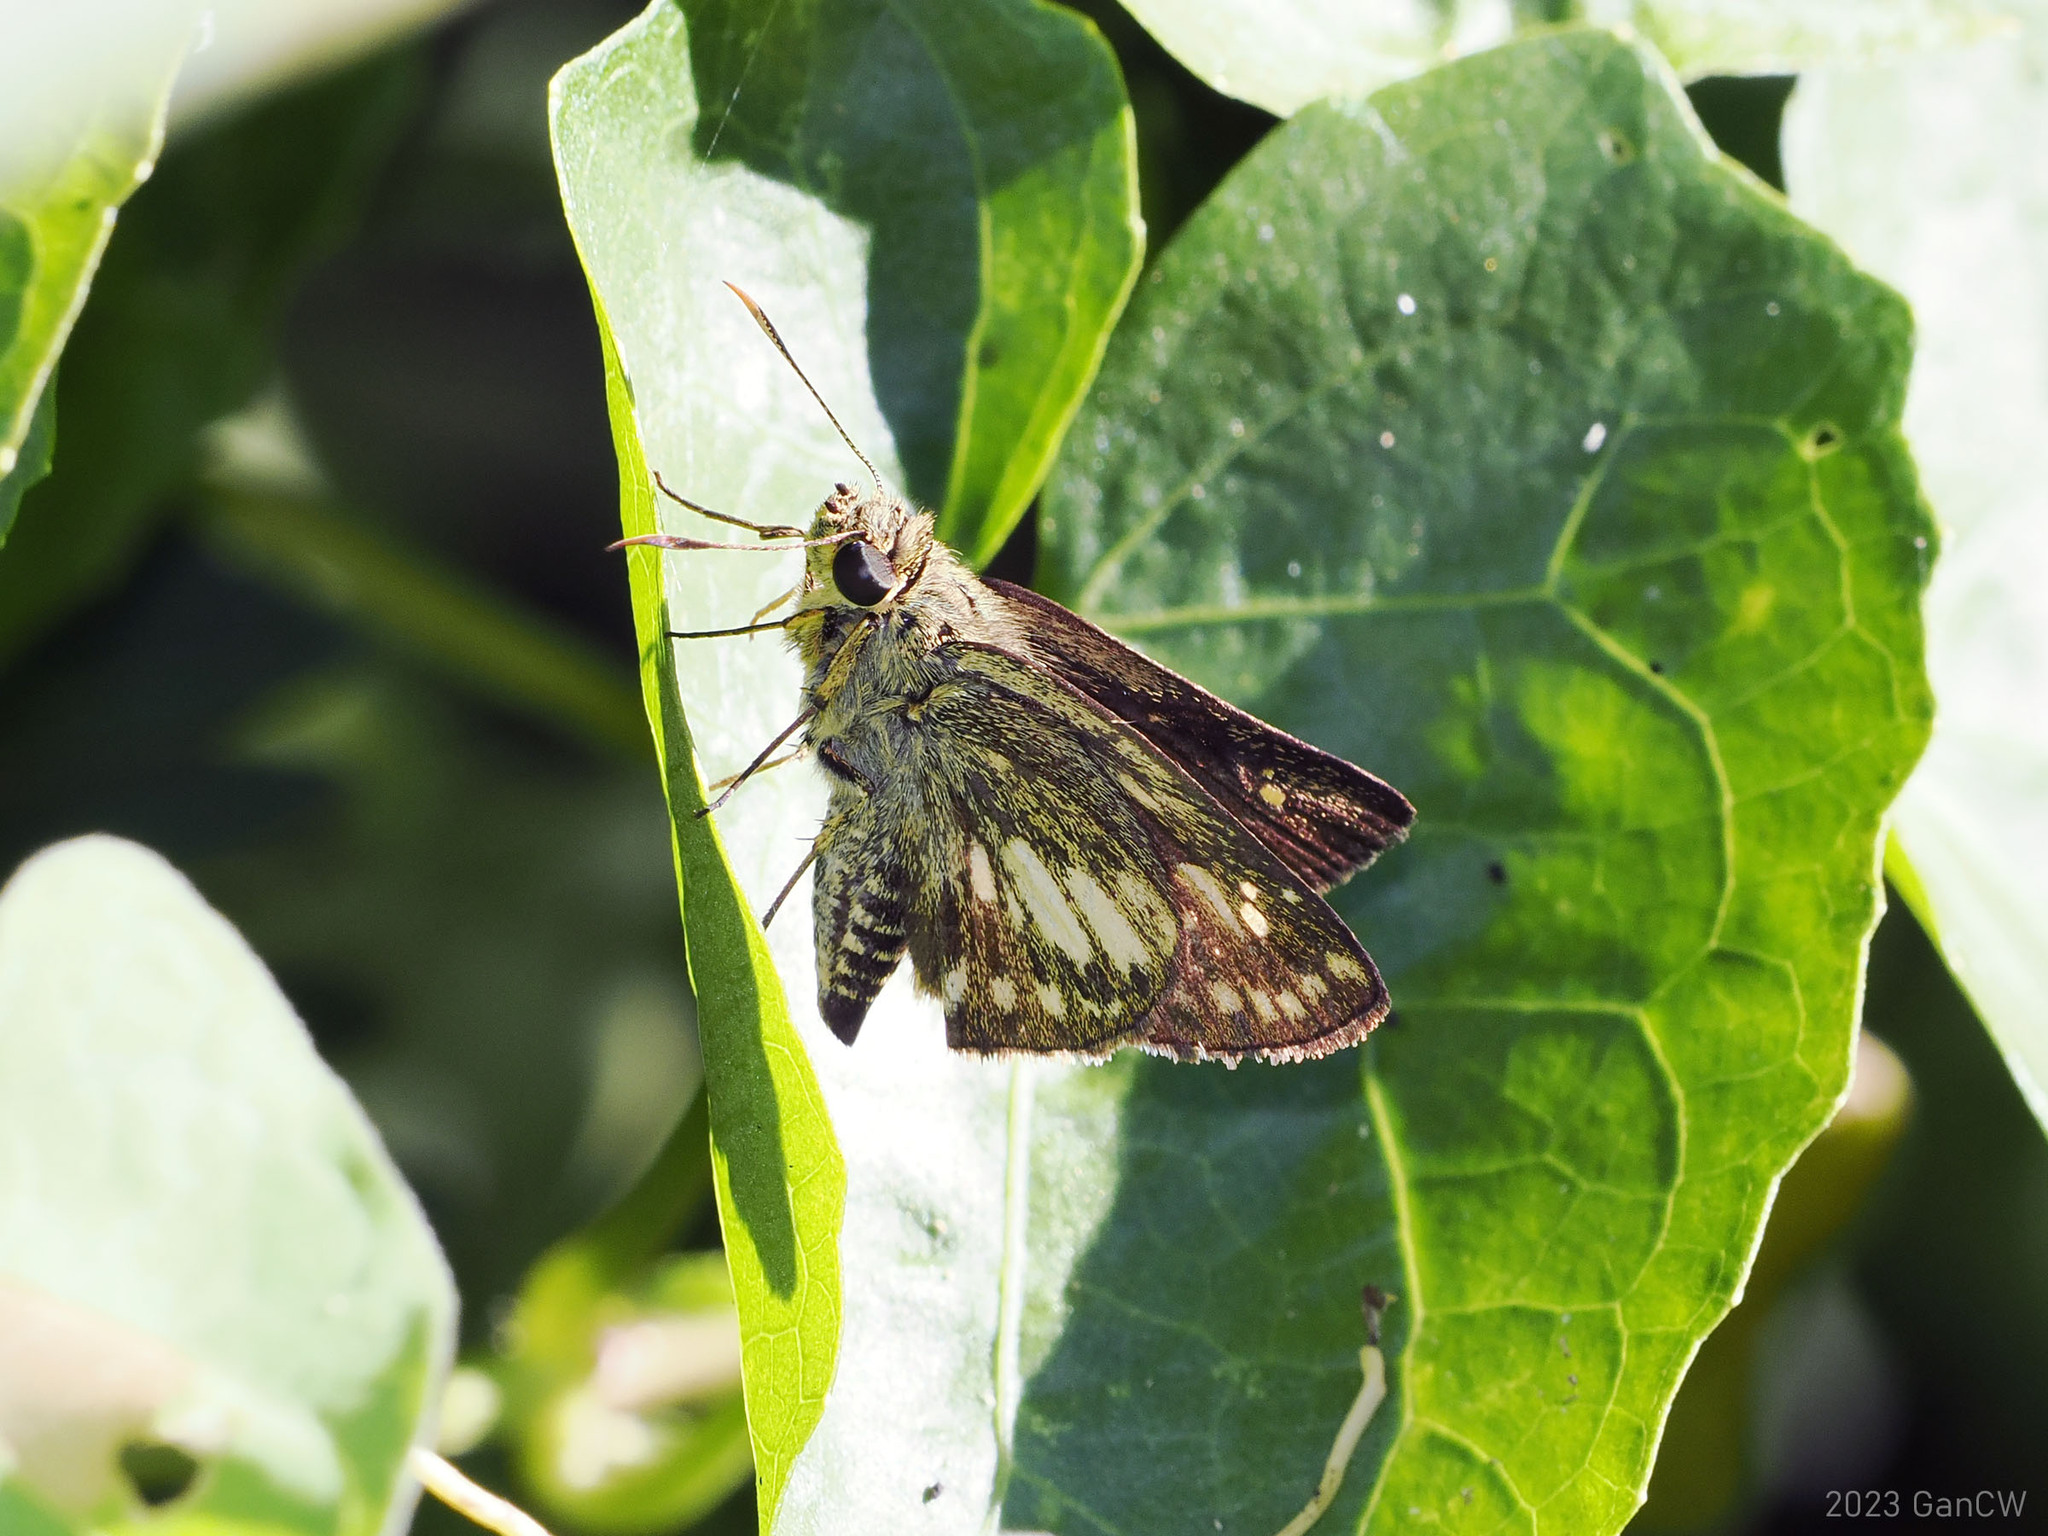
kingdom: Animalia
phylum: Arthropoda
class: Insecta
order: Lepidoptera
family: Hesperiidae
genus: Halpe
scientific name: Halpe luteisquama
